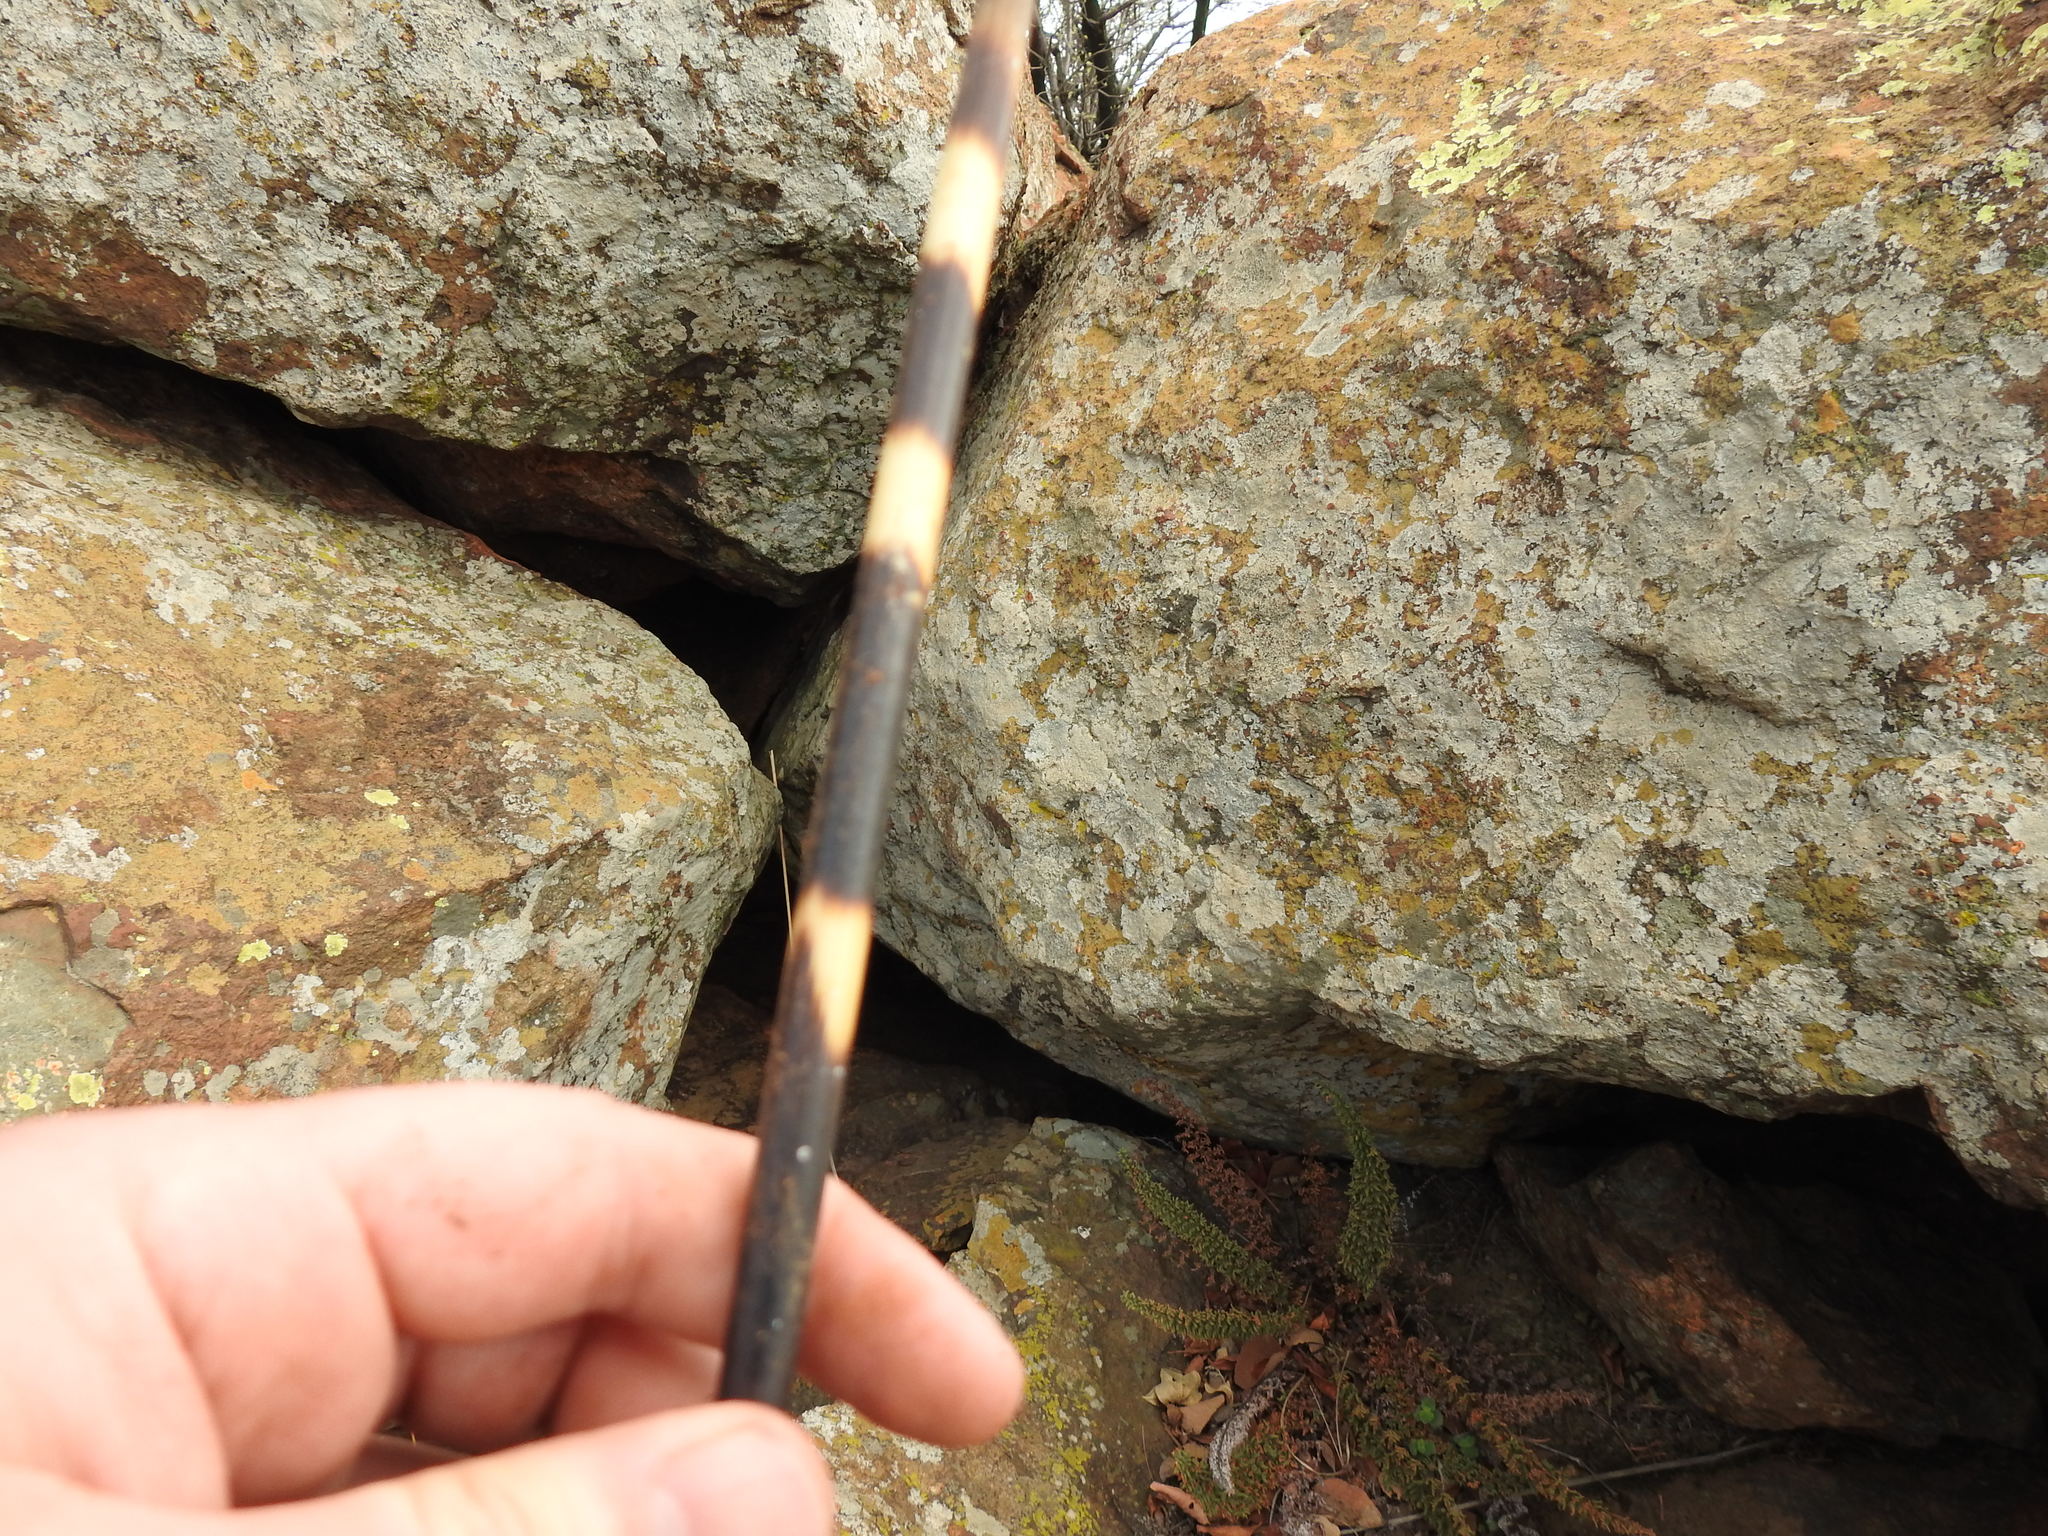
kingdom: Animalia
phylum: Chordata
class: Mammalia
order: Rodentia
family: Hystricidae
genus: Hystrix
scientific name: Hystrix africaeaustralis
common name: Cape porcupine
